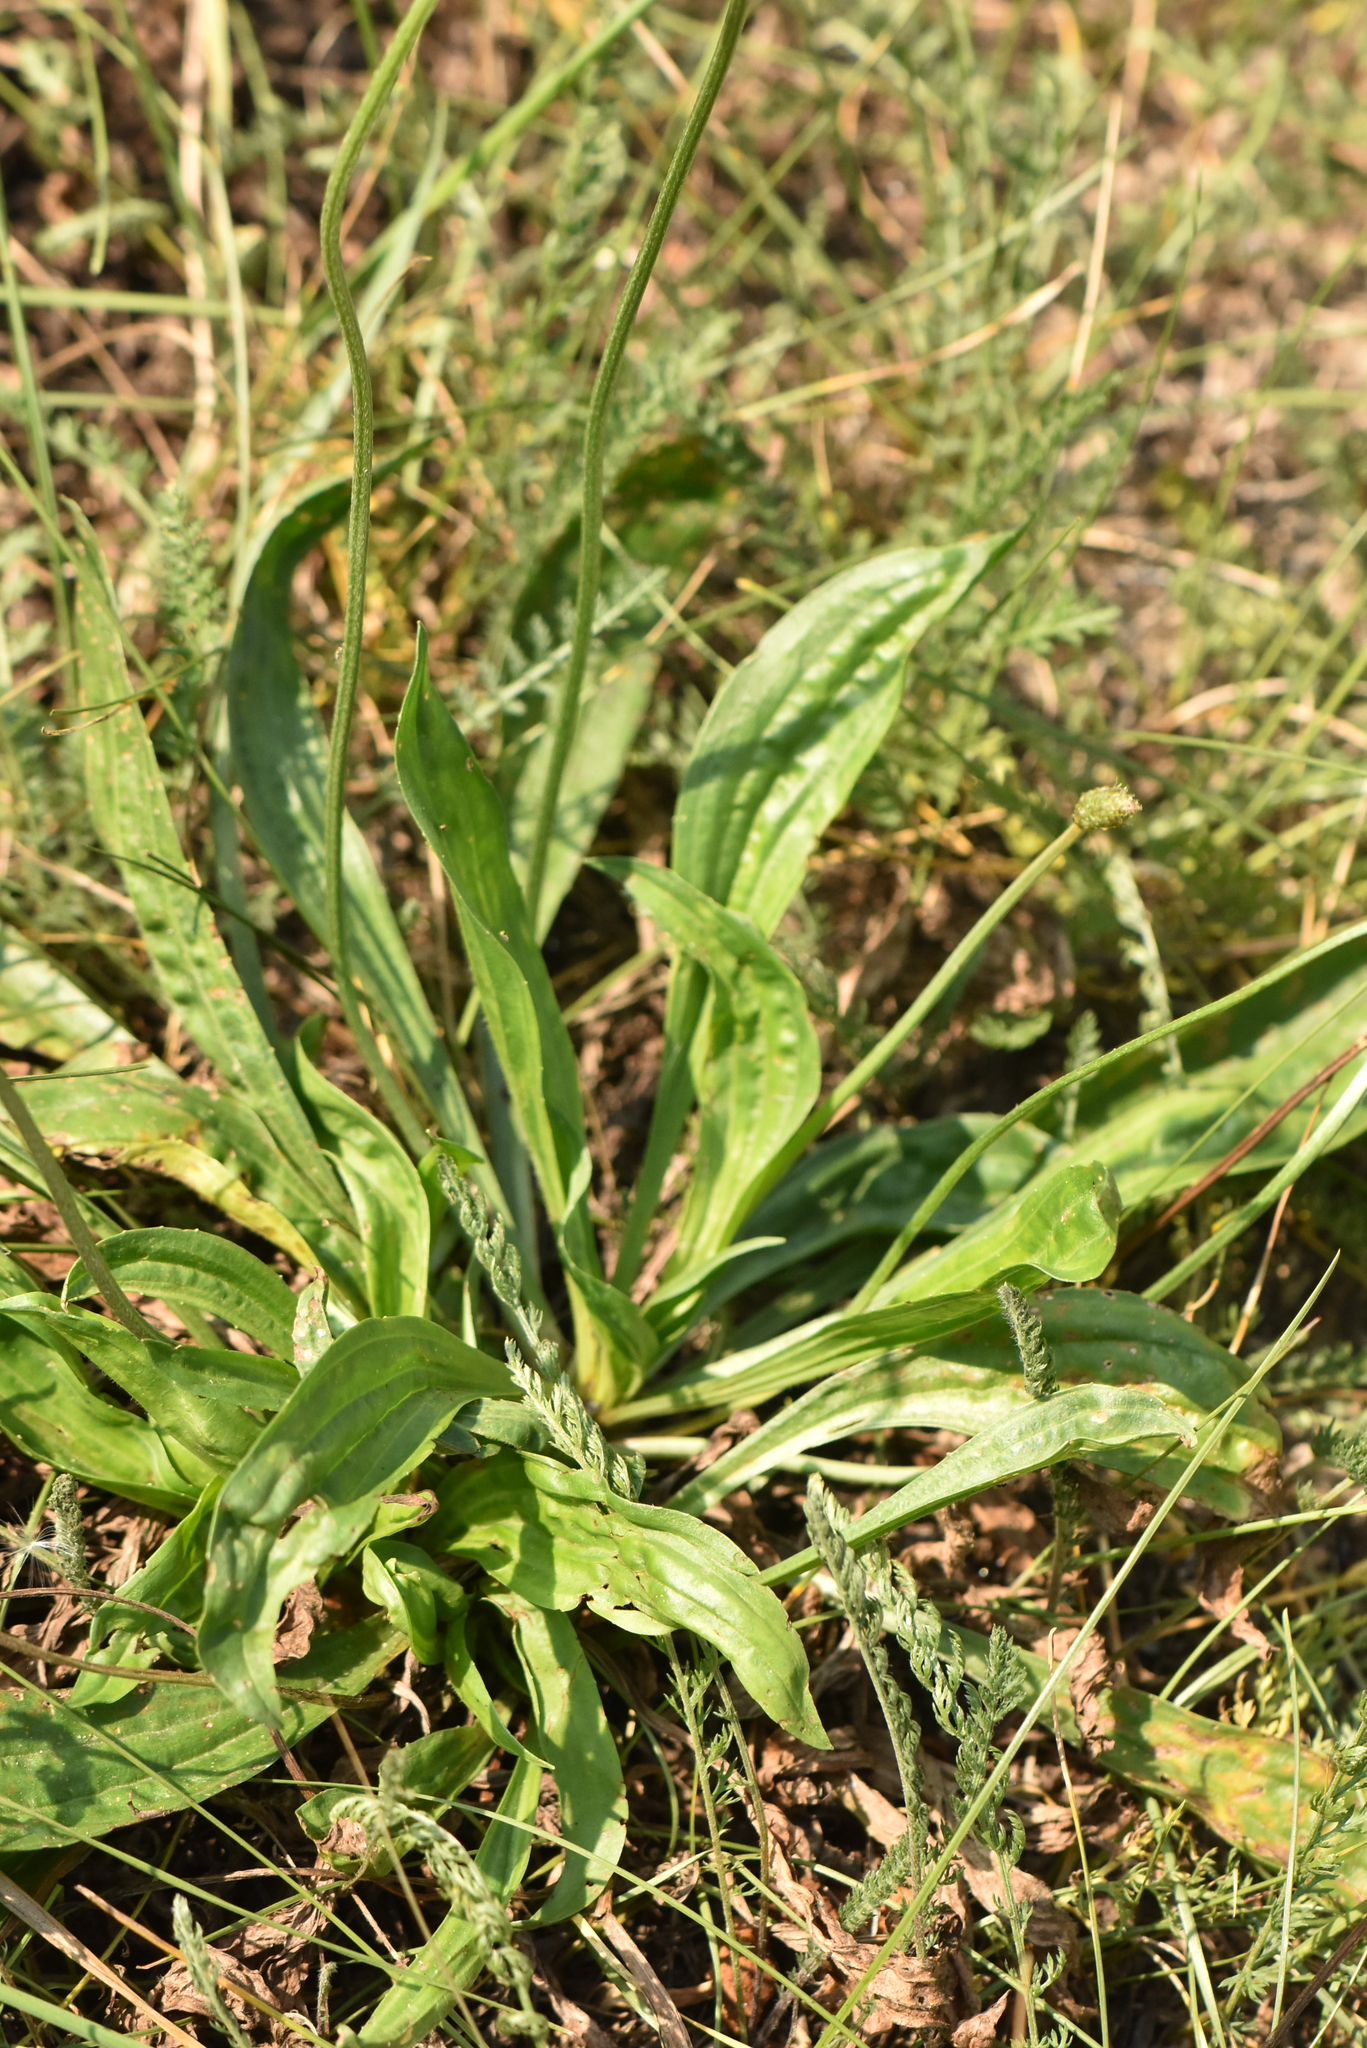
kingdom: Plantae
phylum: Tracheophyta
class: Magnoliopsida
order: Lamiales
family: Plantaginaceae
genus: Plantago
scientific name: Plantago lanceolata
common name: Ribwort plantain
